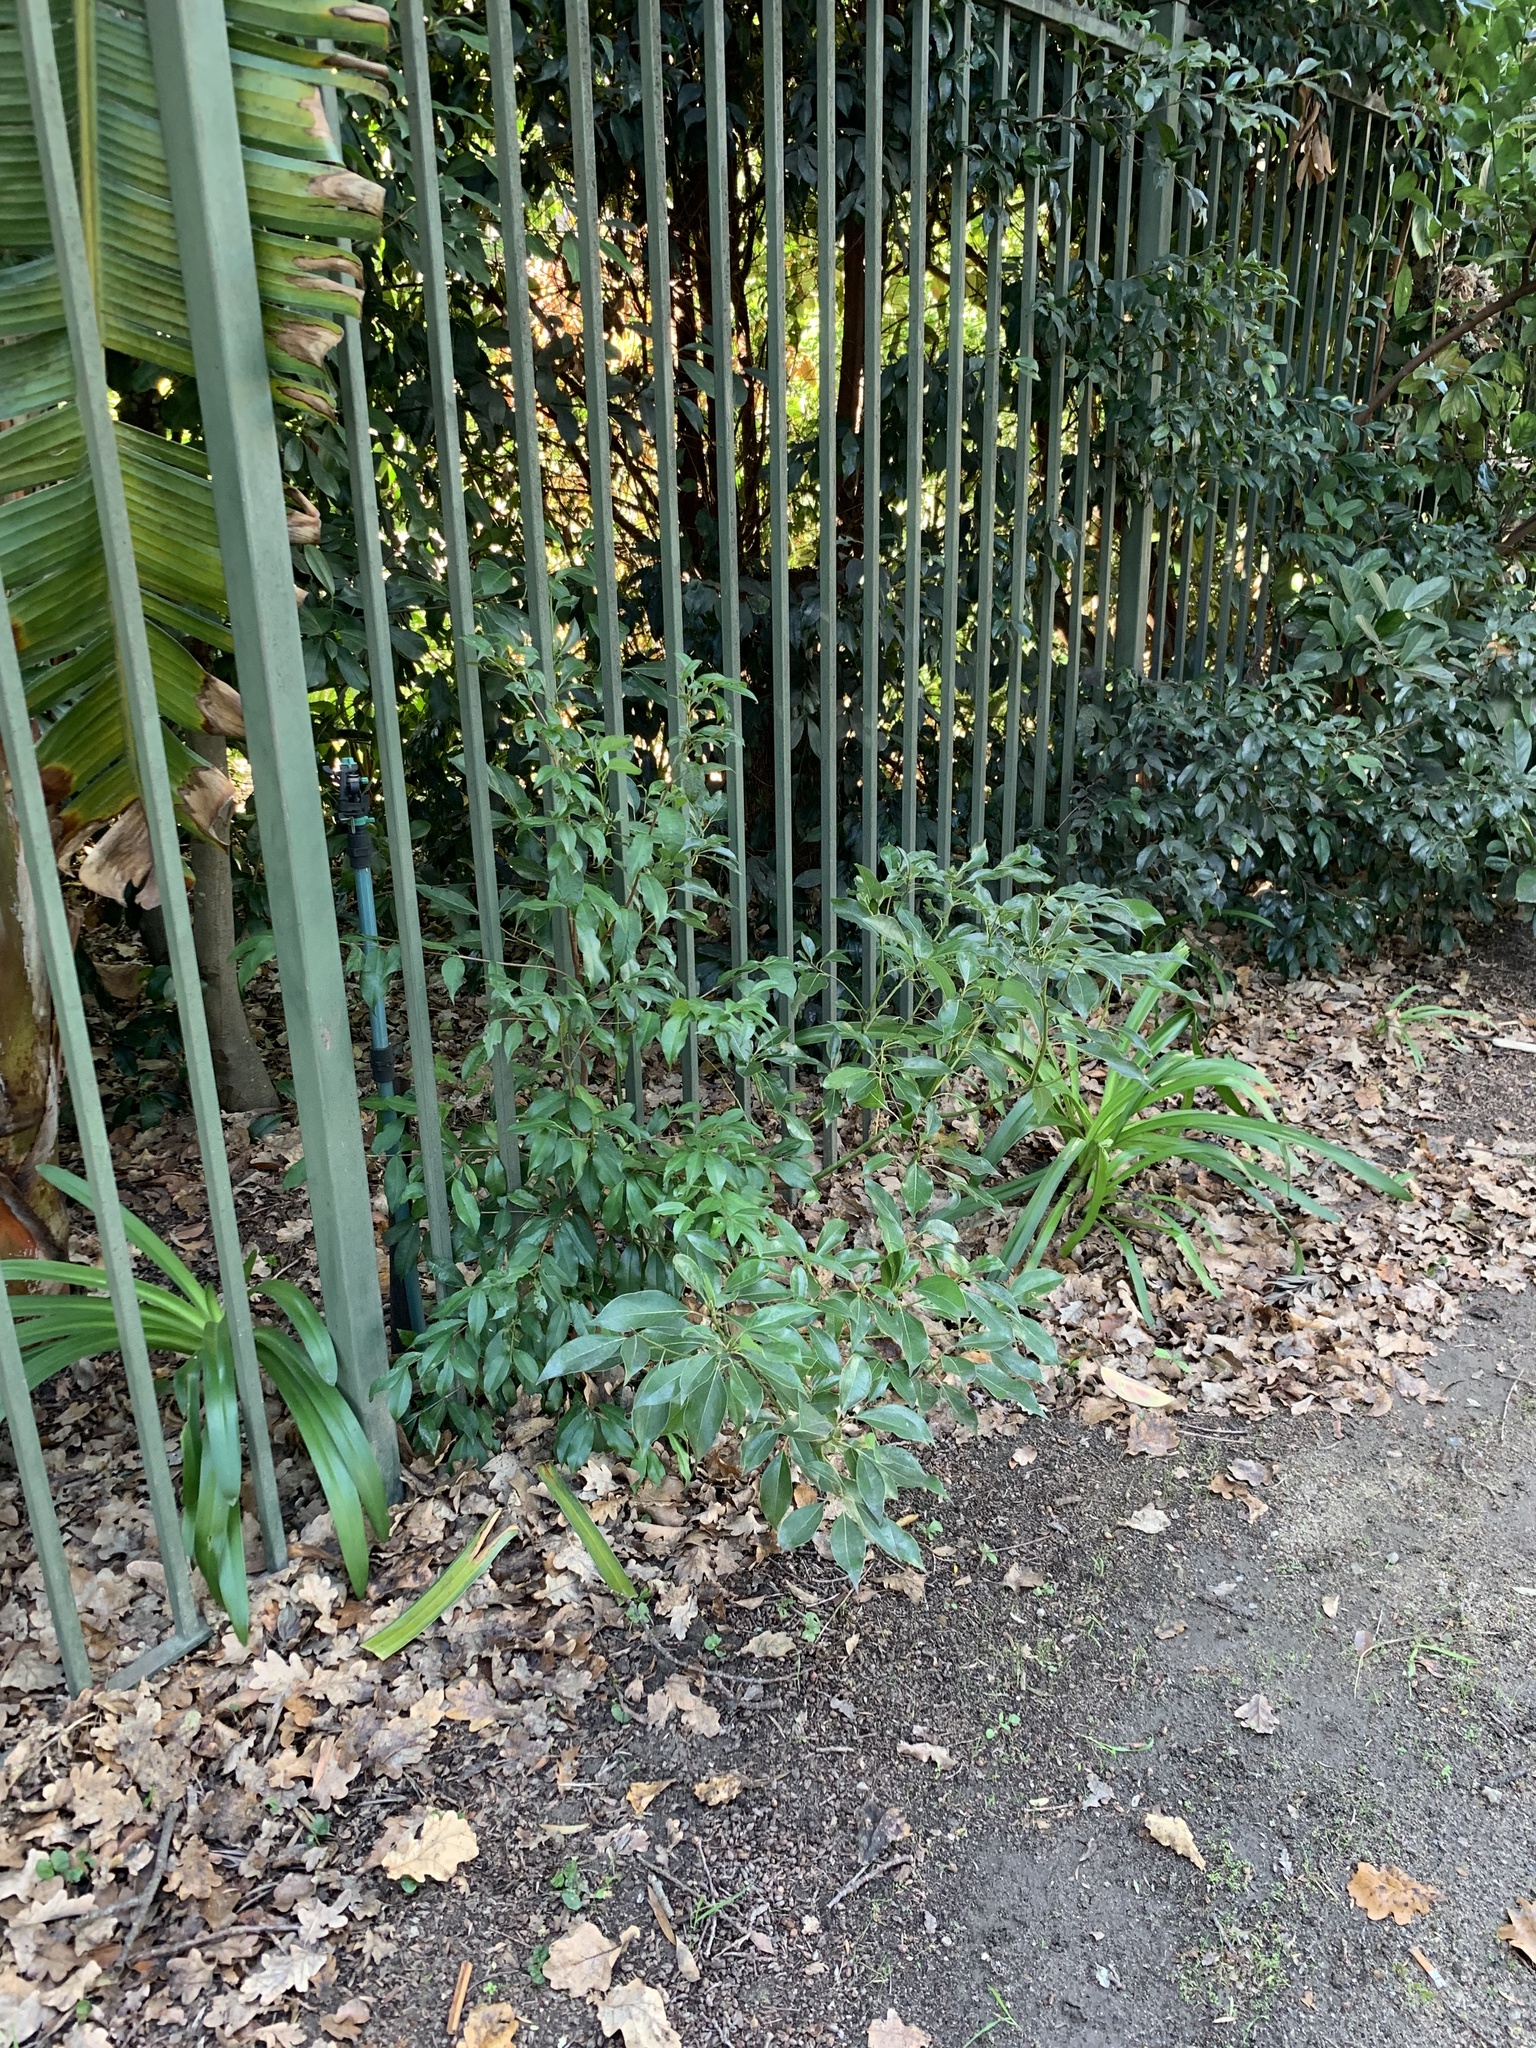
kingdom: Plantae
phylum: Tracheophyta
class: Magnoliopsida
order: Laurales
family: Lauraceae
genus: Cinnamomum
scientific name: Cinnamomum camphora
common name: Camphortree
